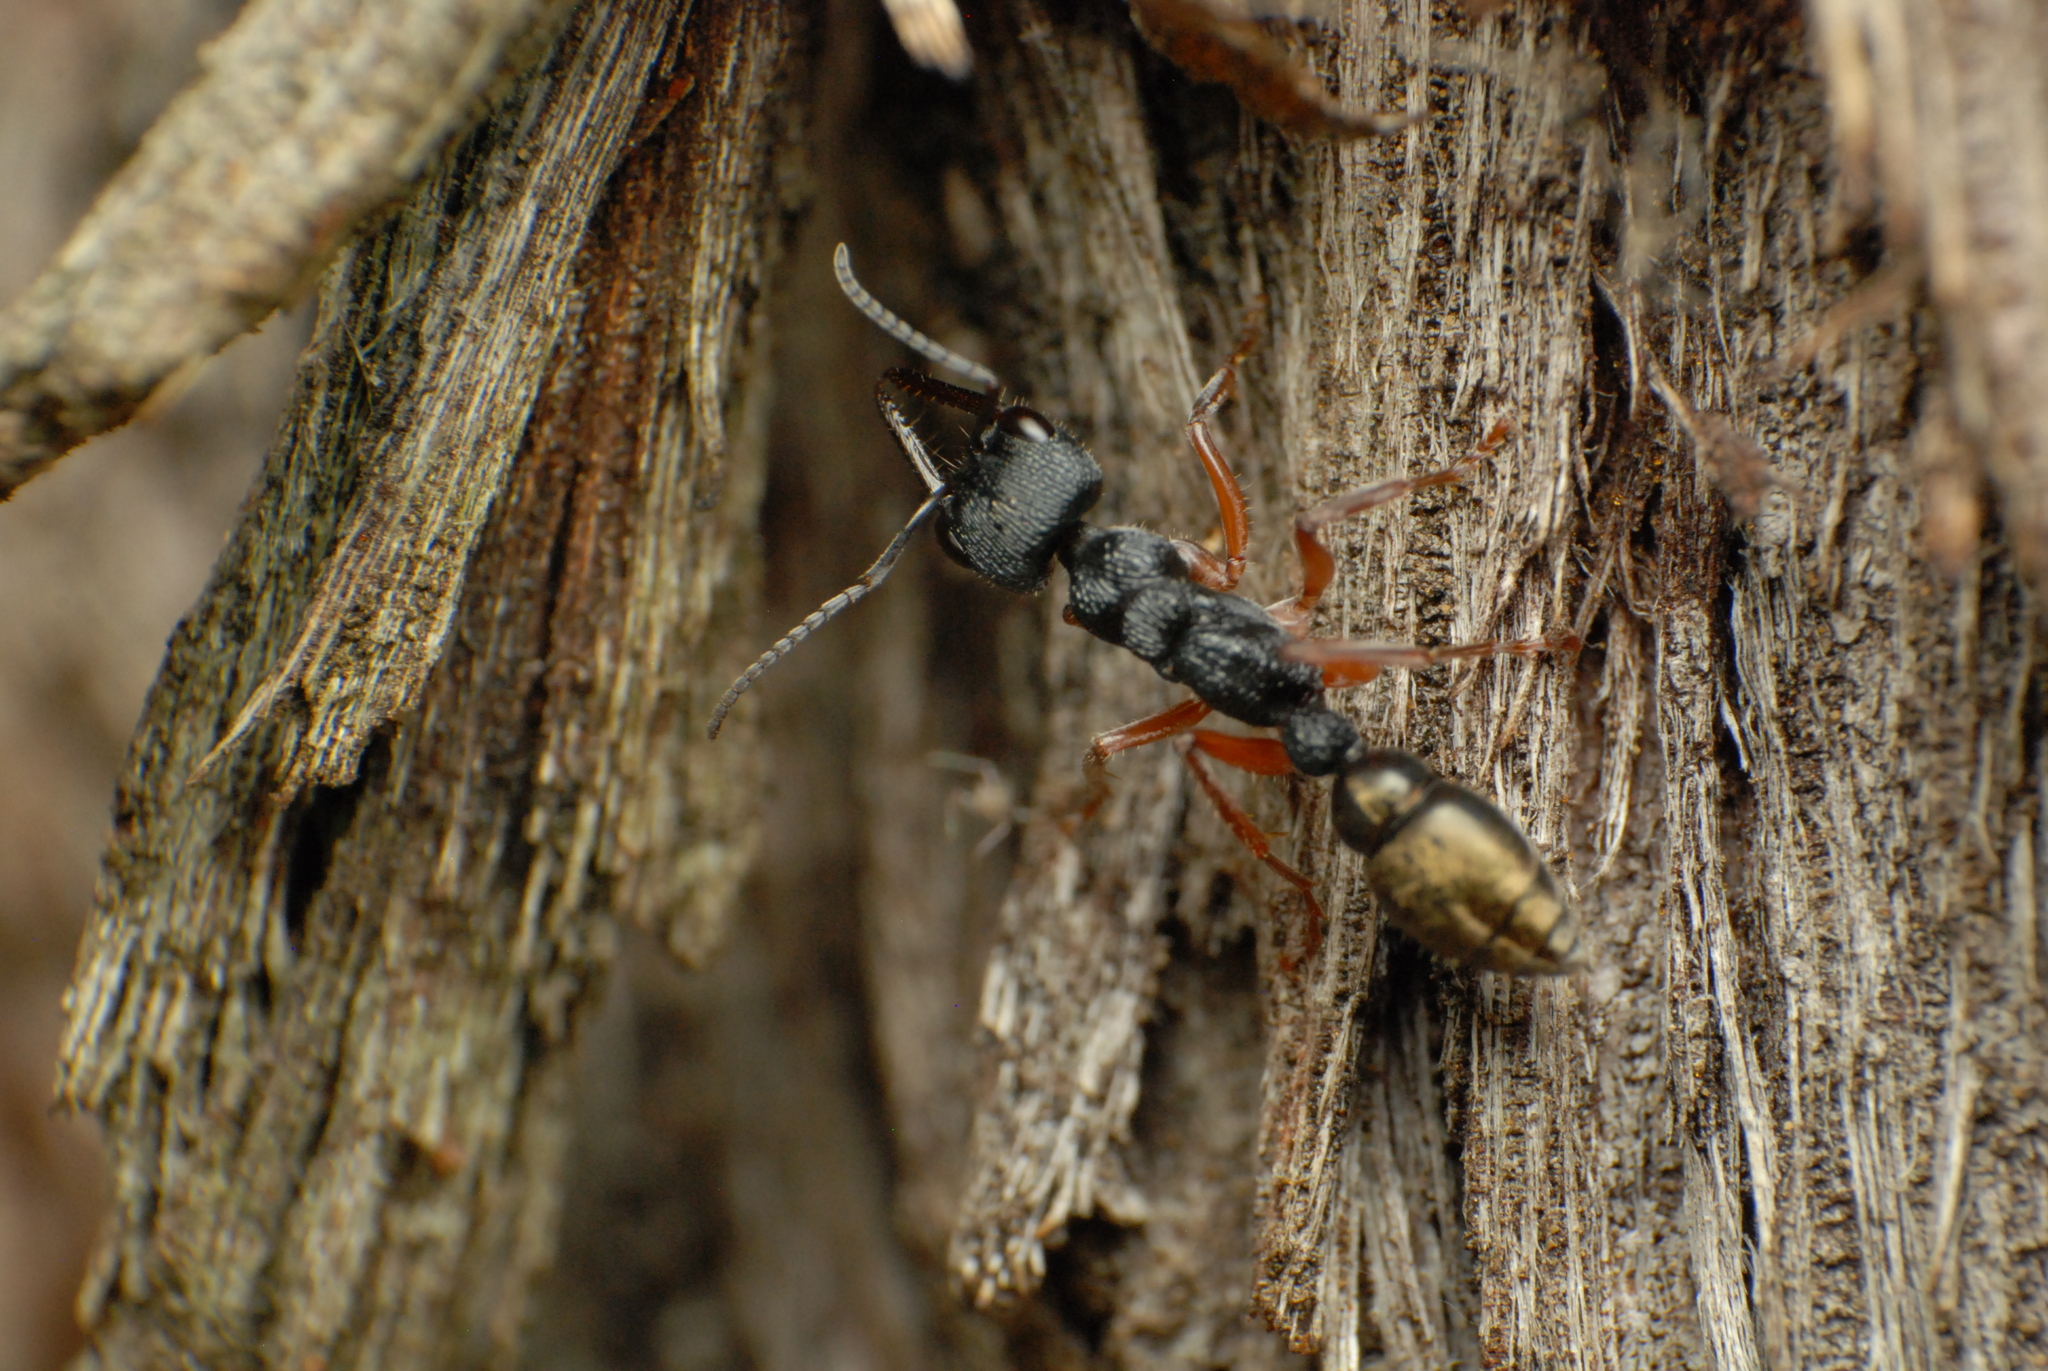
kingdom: Animalia
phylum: Arthropoda
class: Insecta
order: Hymenoptera
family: Formicidae
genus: Myrmecia
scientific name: Myrmecia fulvipes
